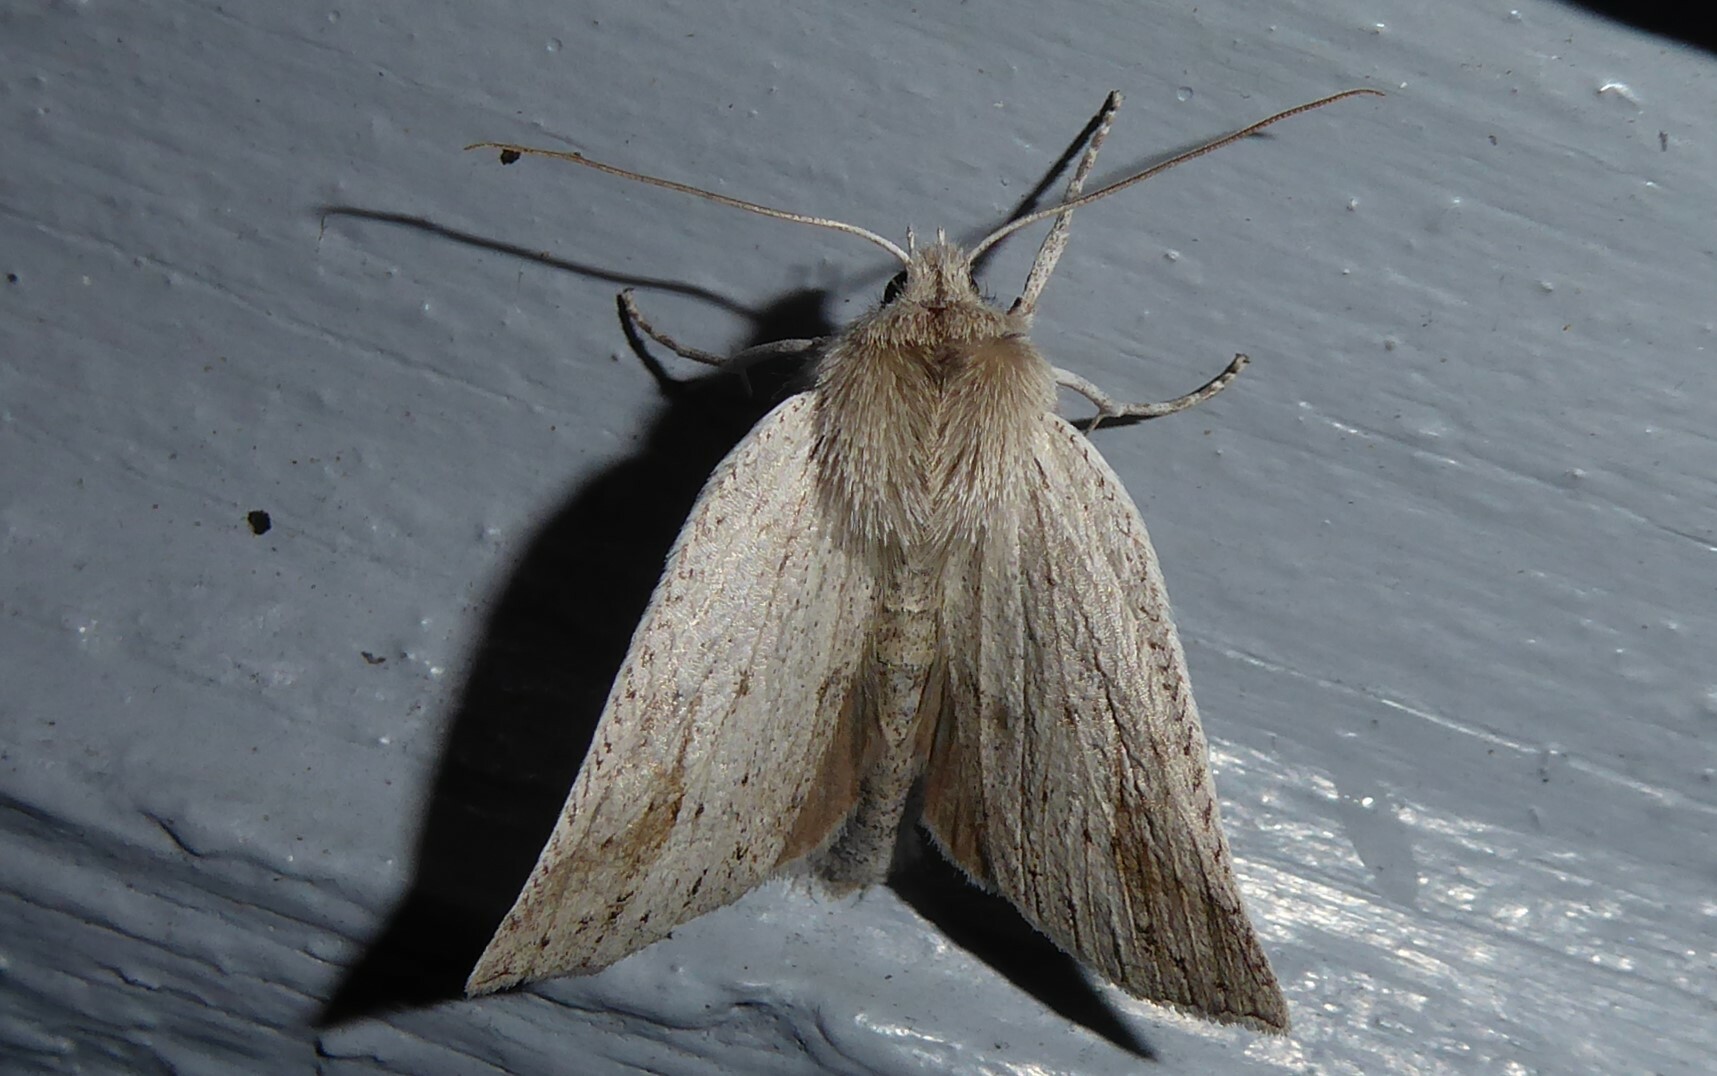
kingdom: Animalia
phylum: Arthropoda
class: Insecta
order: Lepidoptera
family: Geometridae
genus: Declana
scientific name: Declana leptomera
